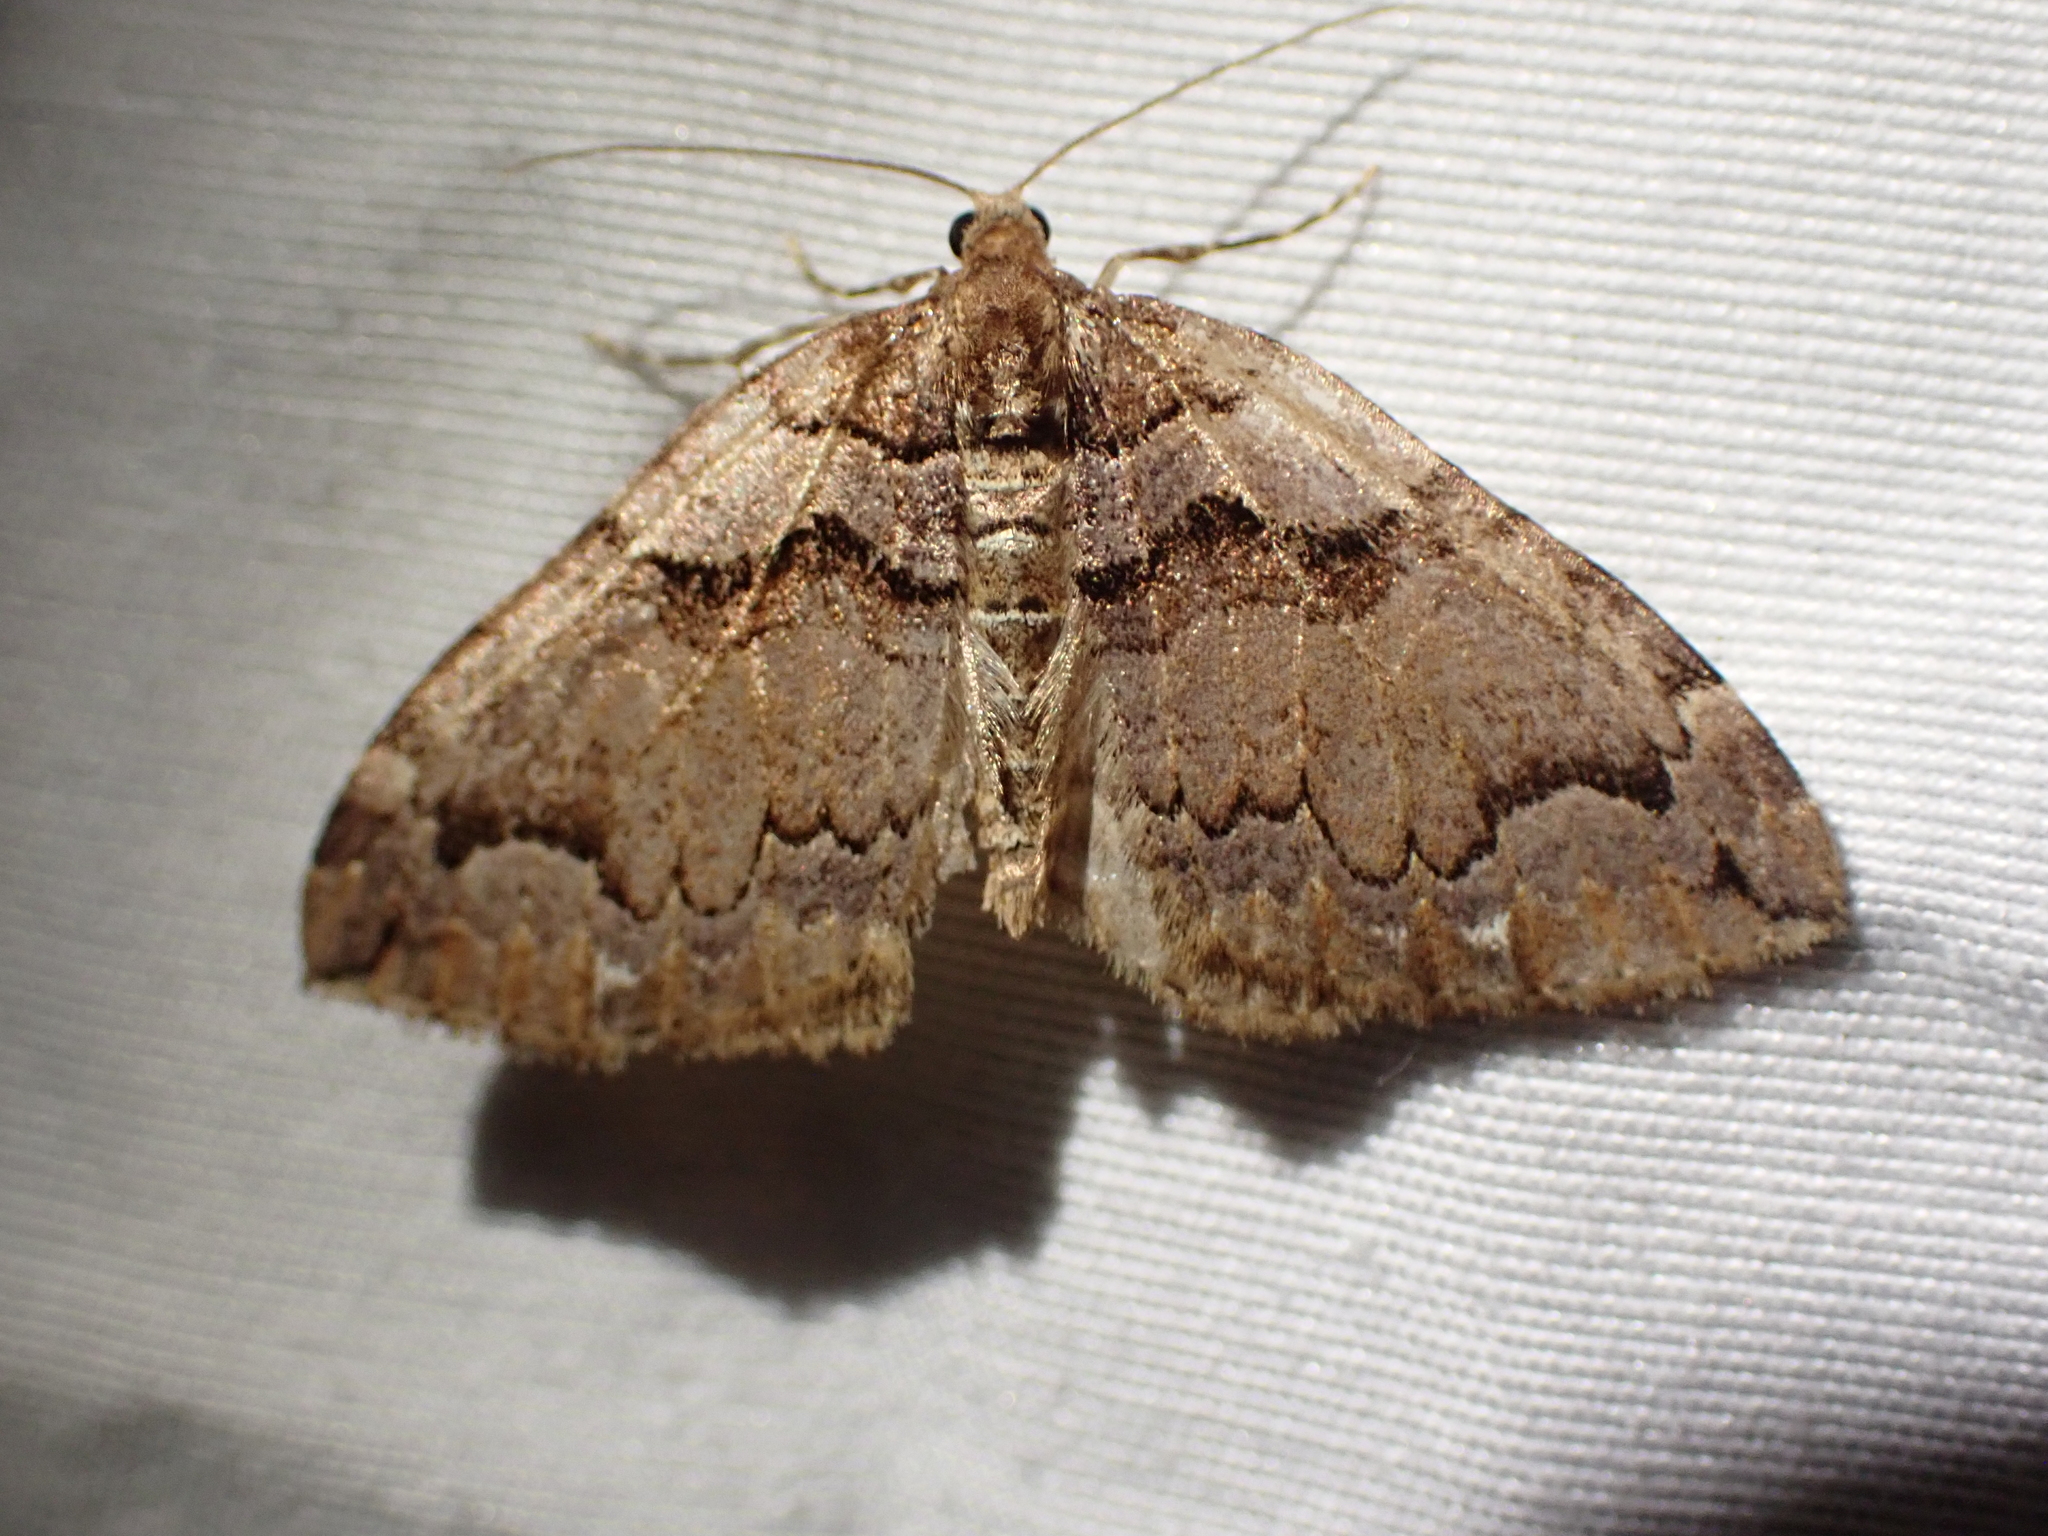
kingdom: Animalia
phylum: Arthropoda
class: Insecta
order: Lepidoptera
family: Geometridae
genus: Anticlea
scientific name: Anticlea vasiliata
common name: Variable carpet
